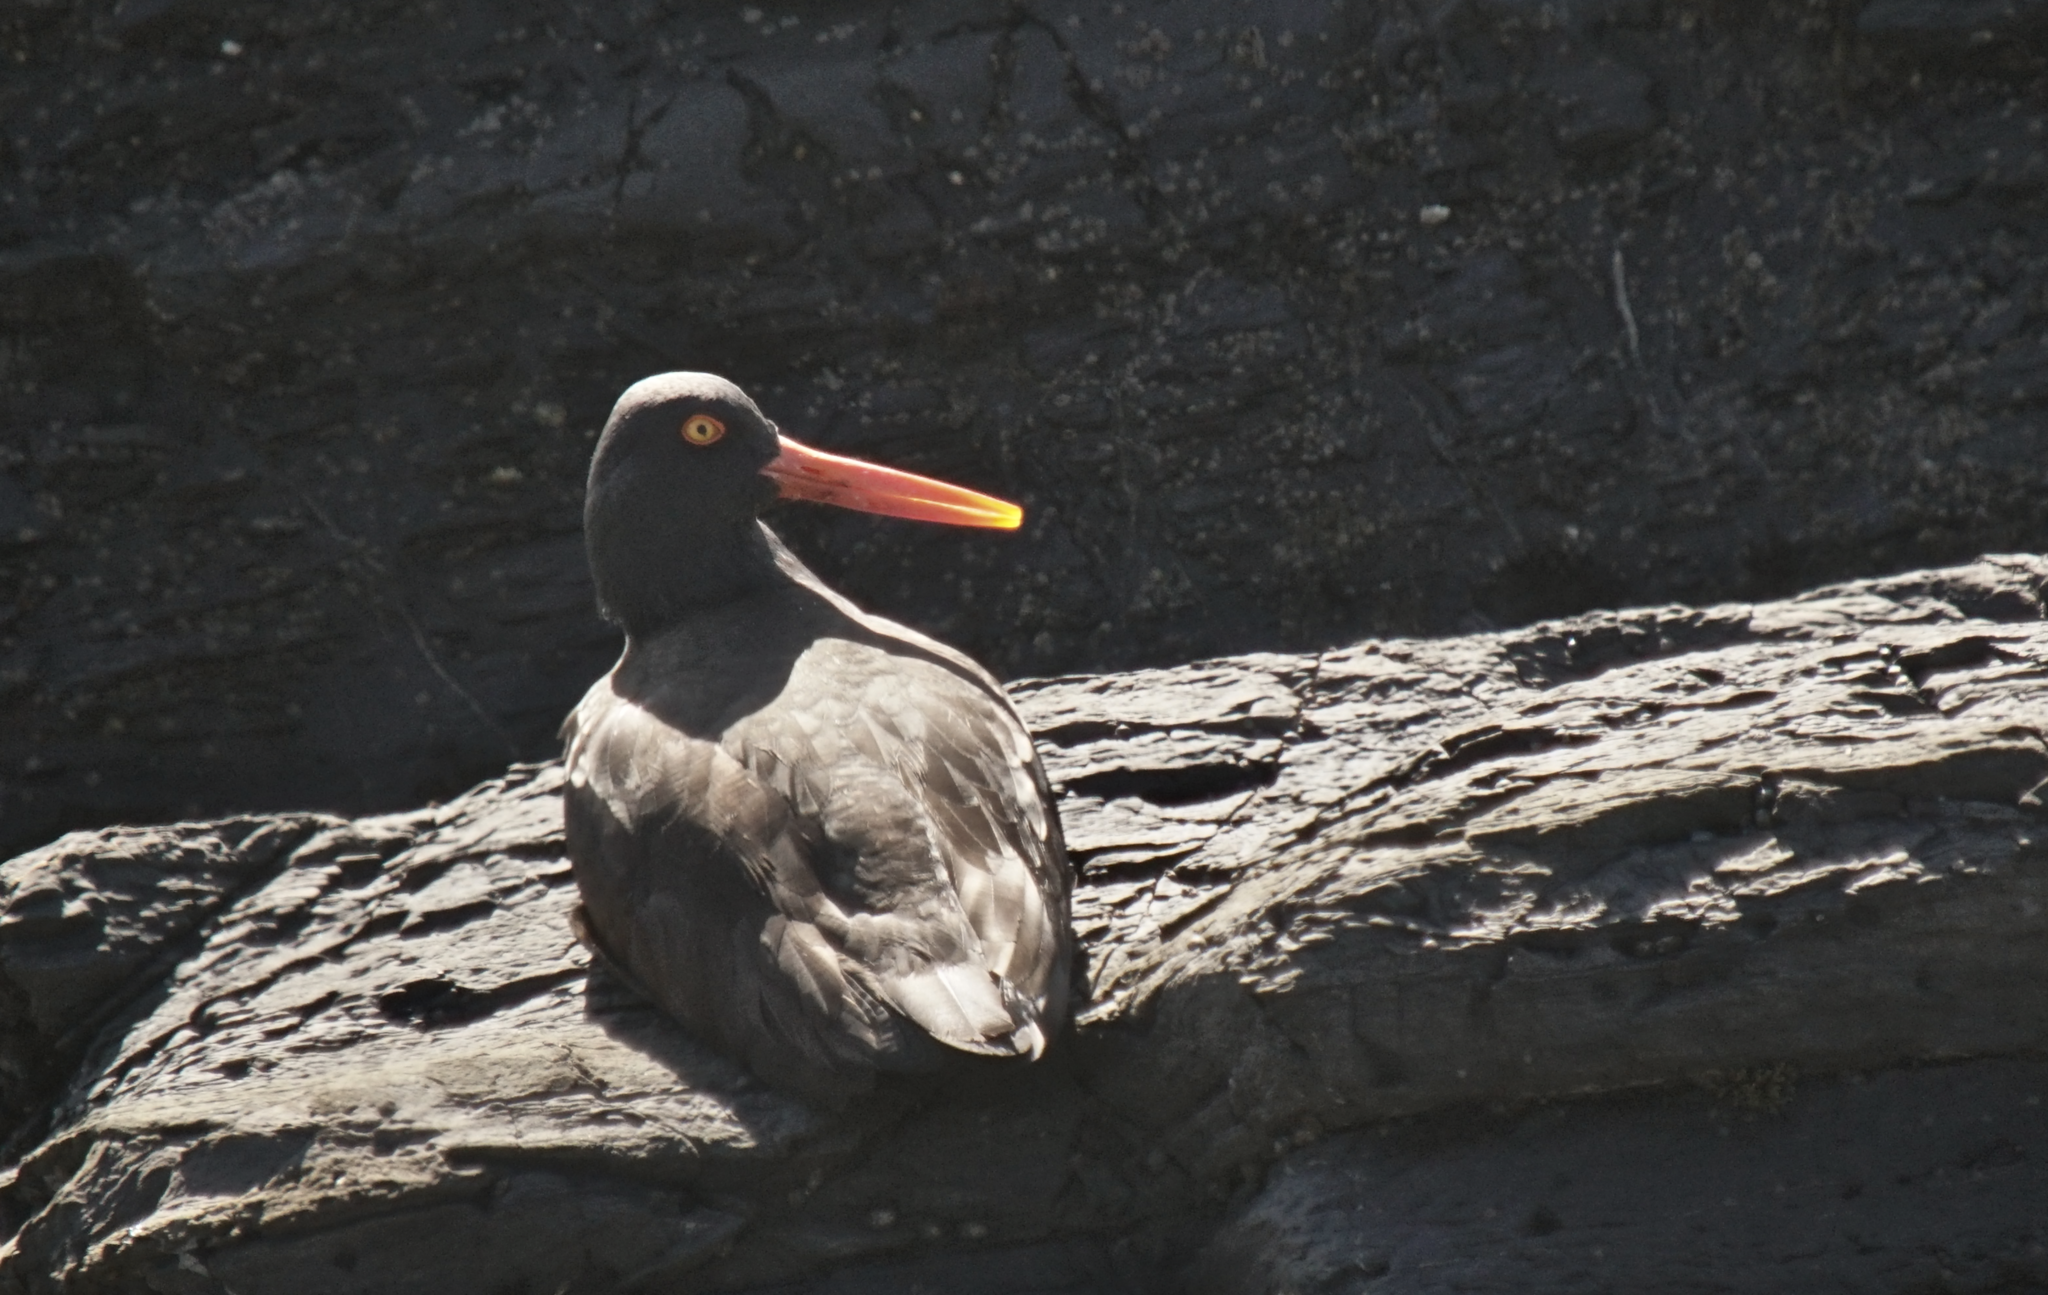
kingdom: Animalia
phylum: Chordata
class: Aves
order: Charadriiformes
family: Haematopodidae
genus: Haematopus
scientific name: Haematopus bachmani
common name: Black oystercatcher
